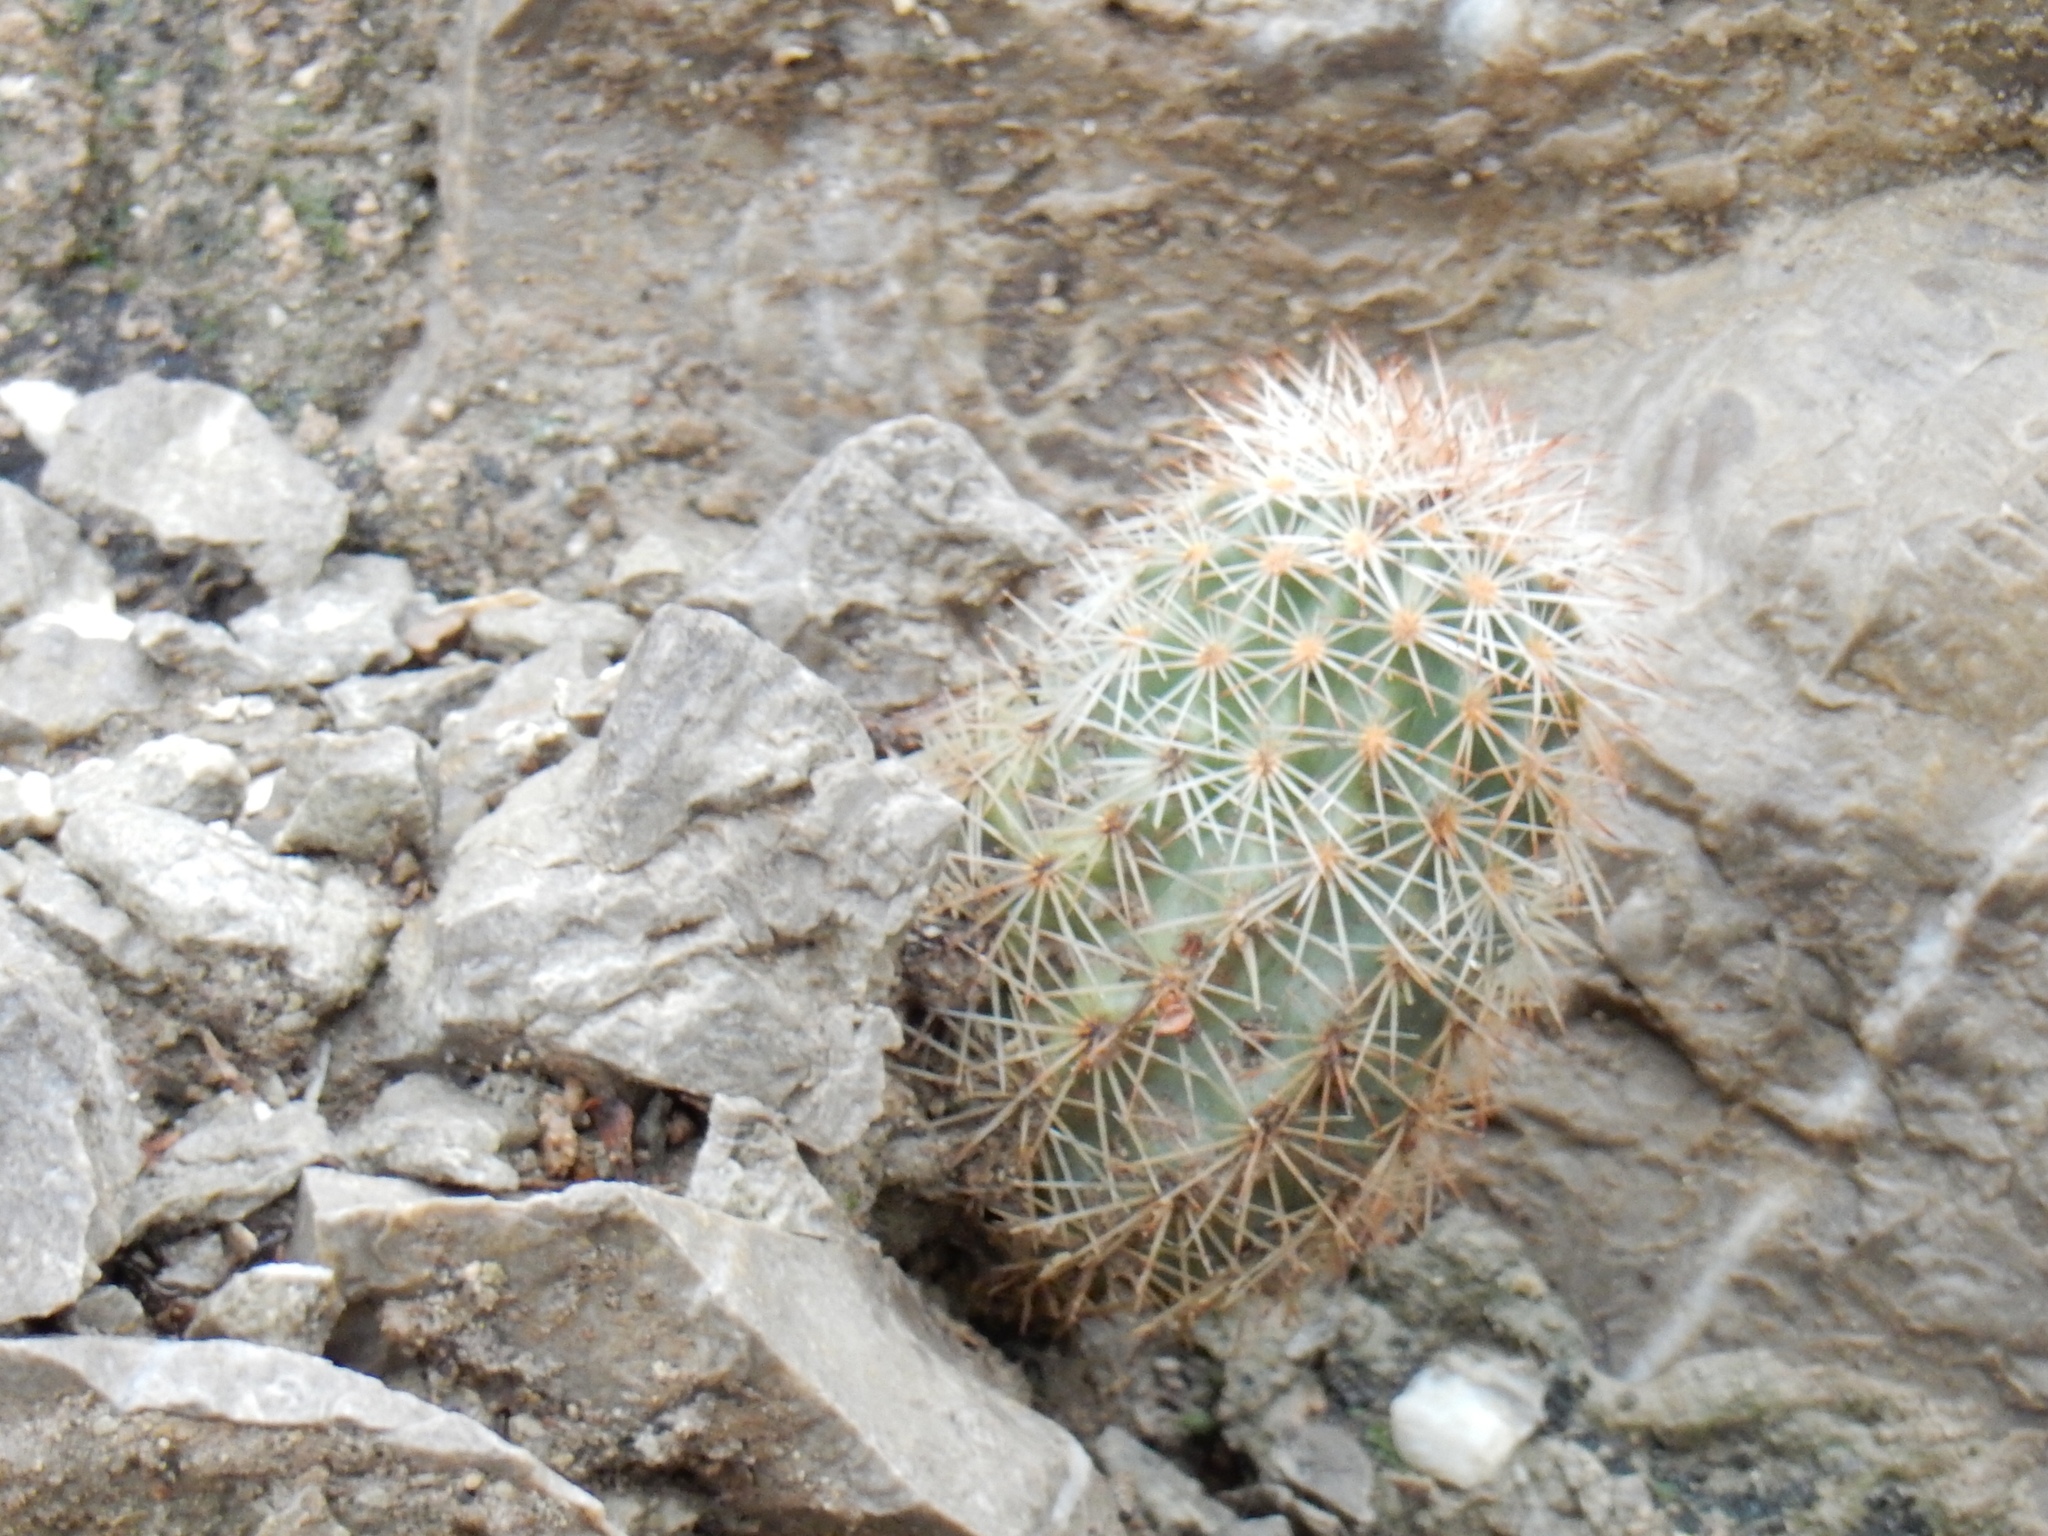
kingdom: Plantae
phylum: Tracheophyta
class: Magnoliopsida
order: Caryophyllales
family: Cactaceae
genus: Echinocereus
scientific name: Echinocereus roetteri
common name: Lloyd's hedgehog cactus
